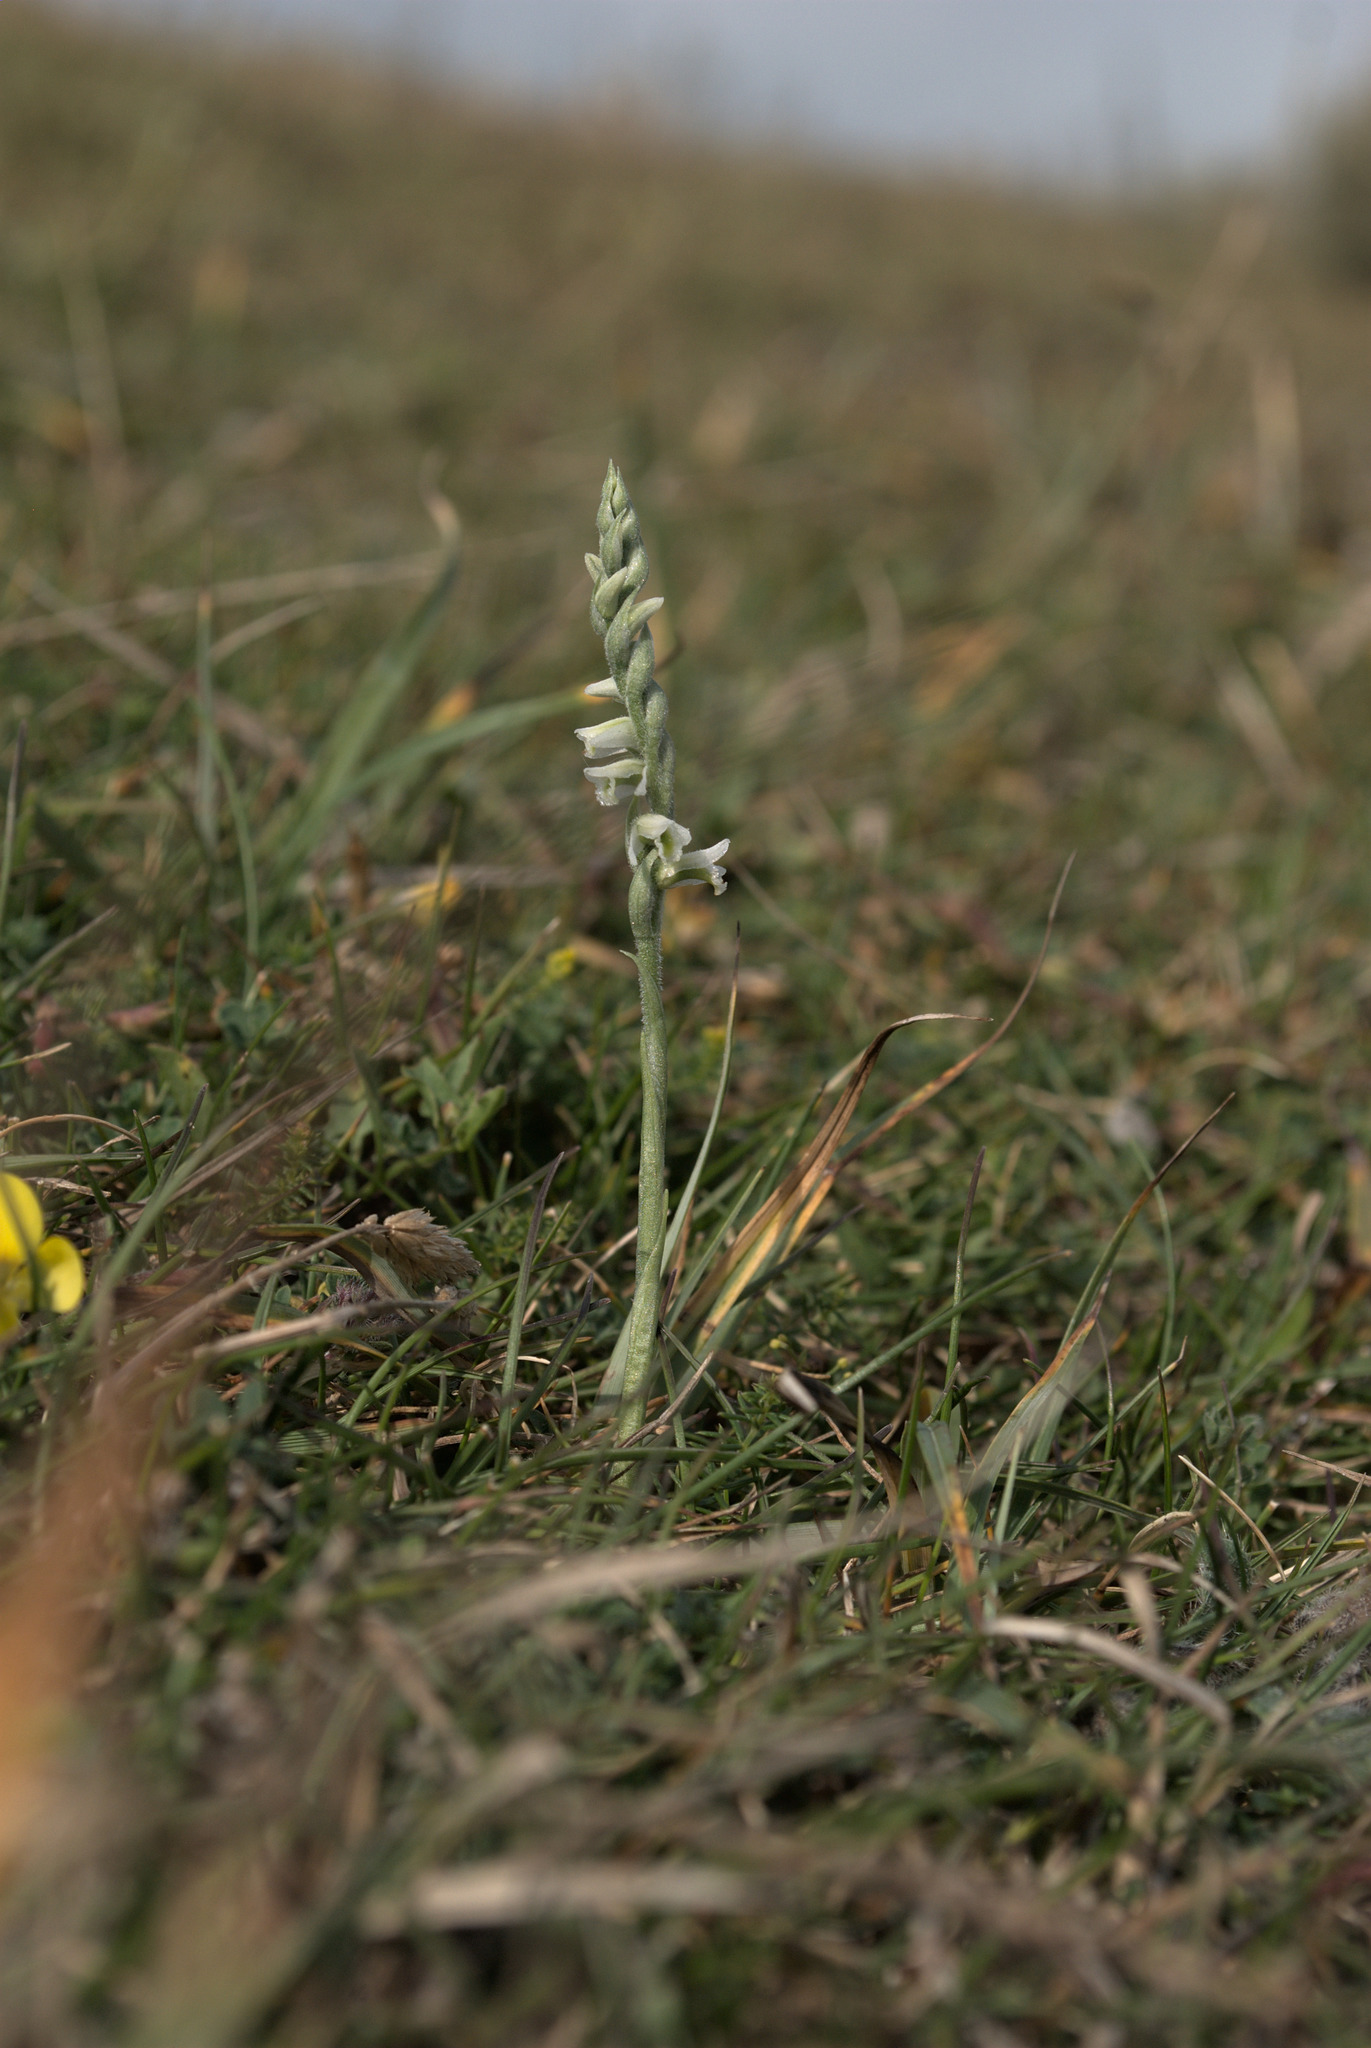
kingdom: Plantae
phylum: Tracheophyta
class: Liliopsida
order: Asparagales
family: Orchidaceae
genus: Spiranthes
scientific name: Spiranthes spiralis
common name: Autumn lady's-tresses
